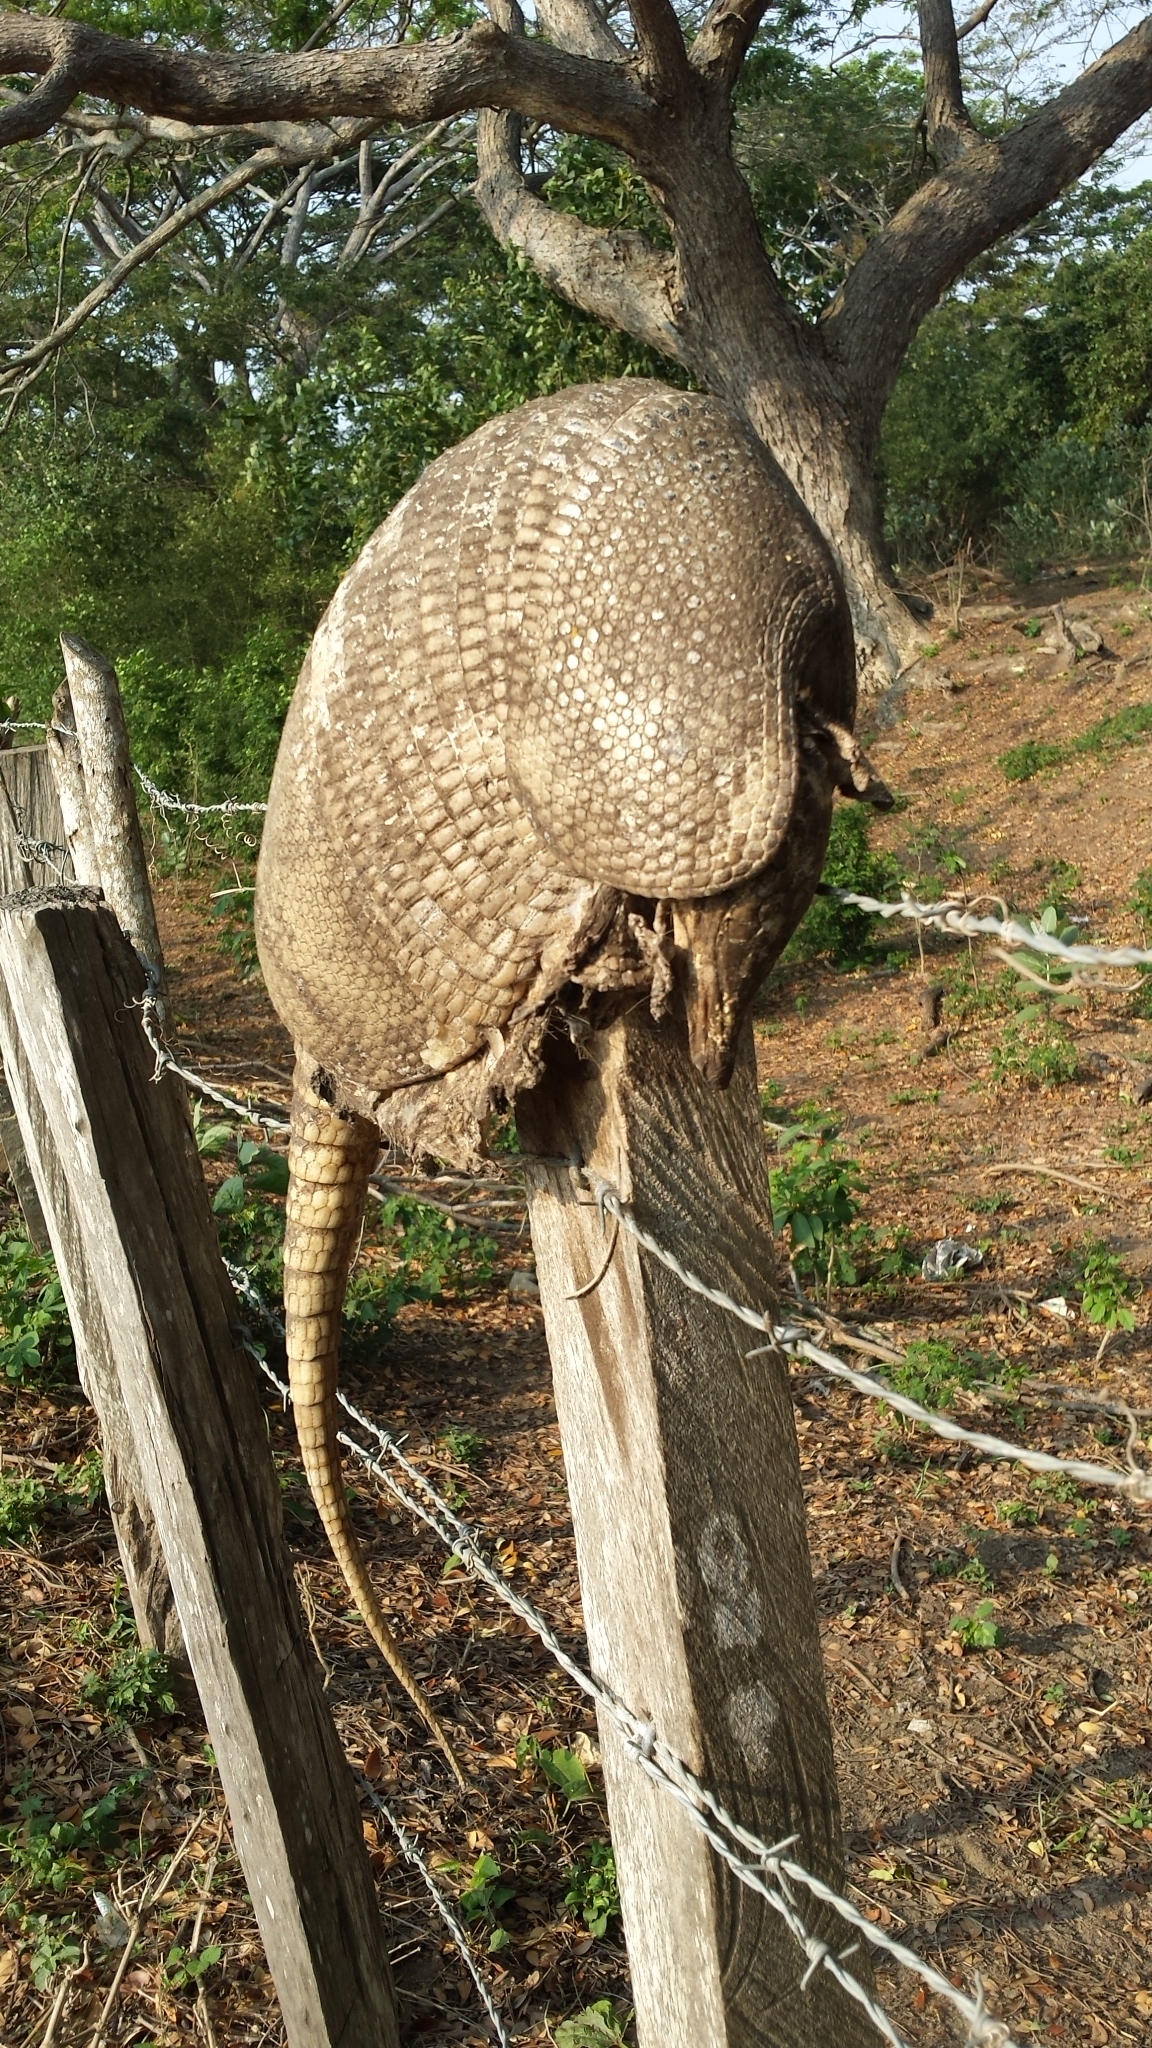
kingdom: Animalia
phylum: Chordata
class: Mammalia
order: Cingulata
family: Dasypodidae
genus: Dasypus
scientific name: Dasypus novemcinctus
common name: Nine-banded armadillo
